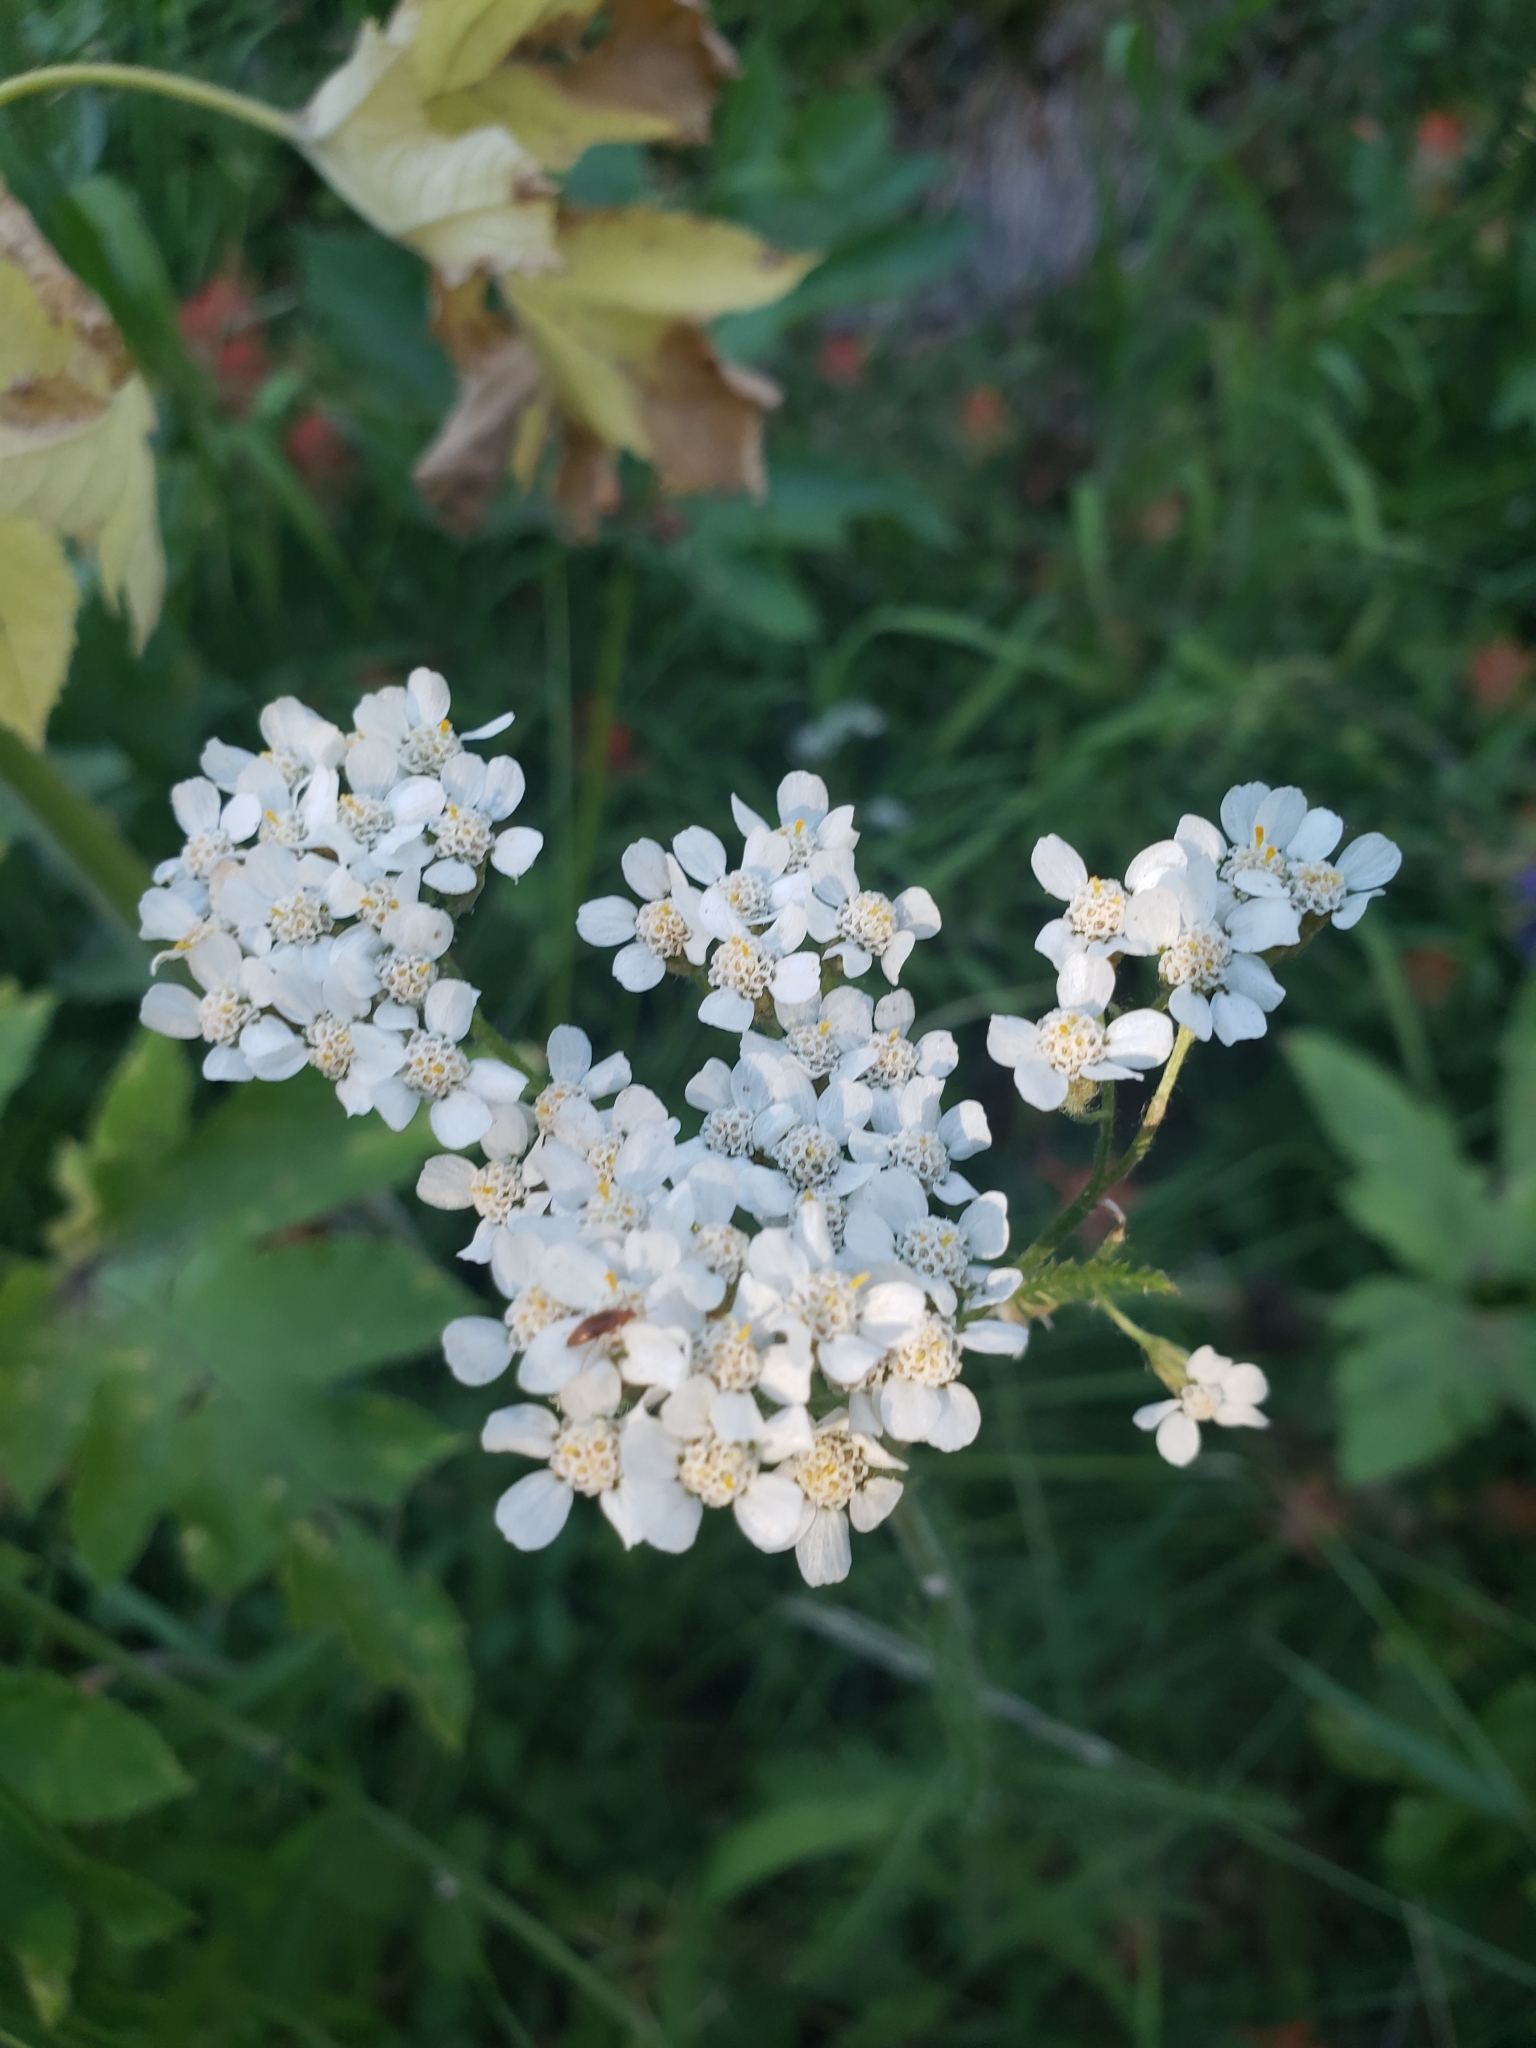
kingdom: Plantae
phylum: Tracheophyta
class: Magnoliopsida
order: Asterales
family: Asteraceae
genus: Achillea
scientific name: Achillea millefolium
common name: Yarrow
